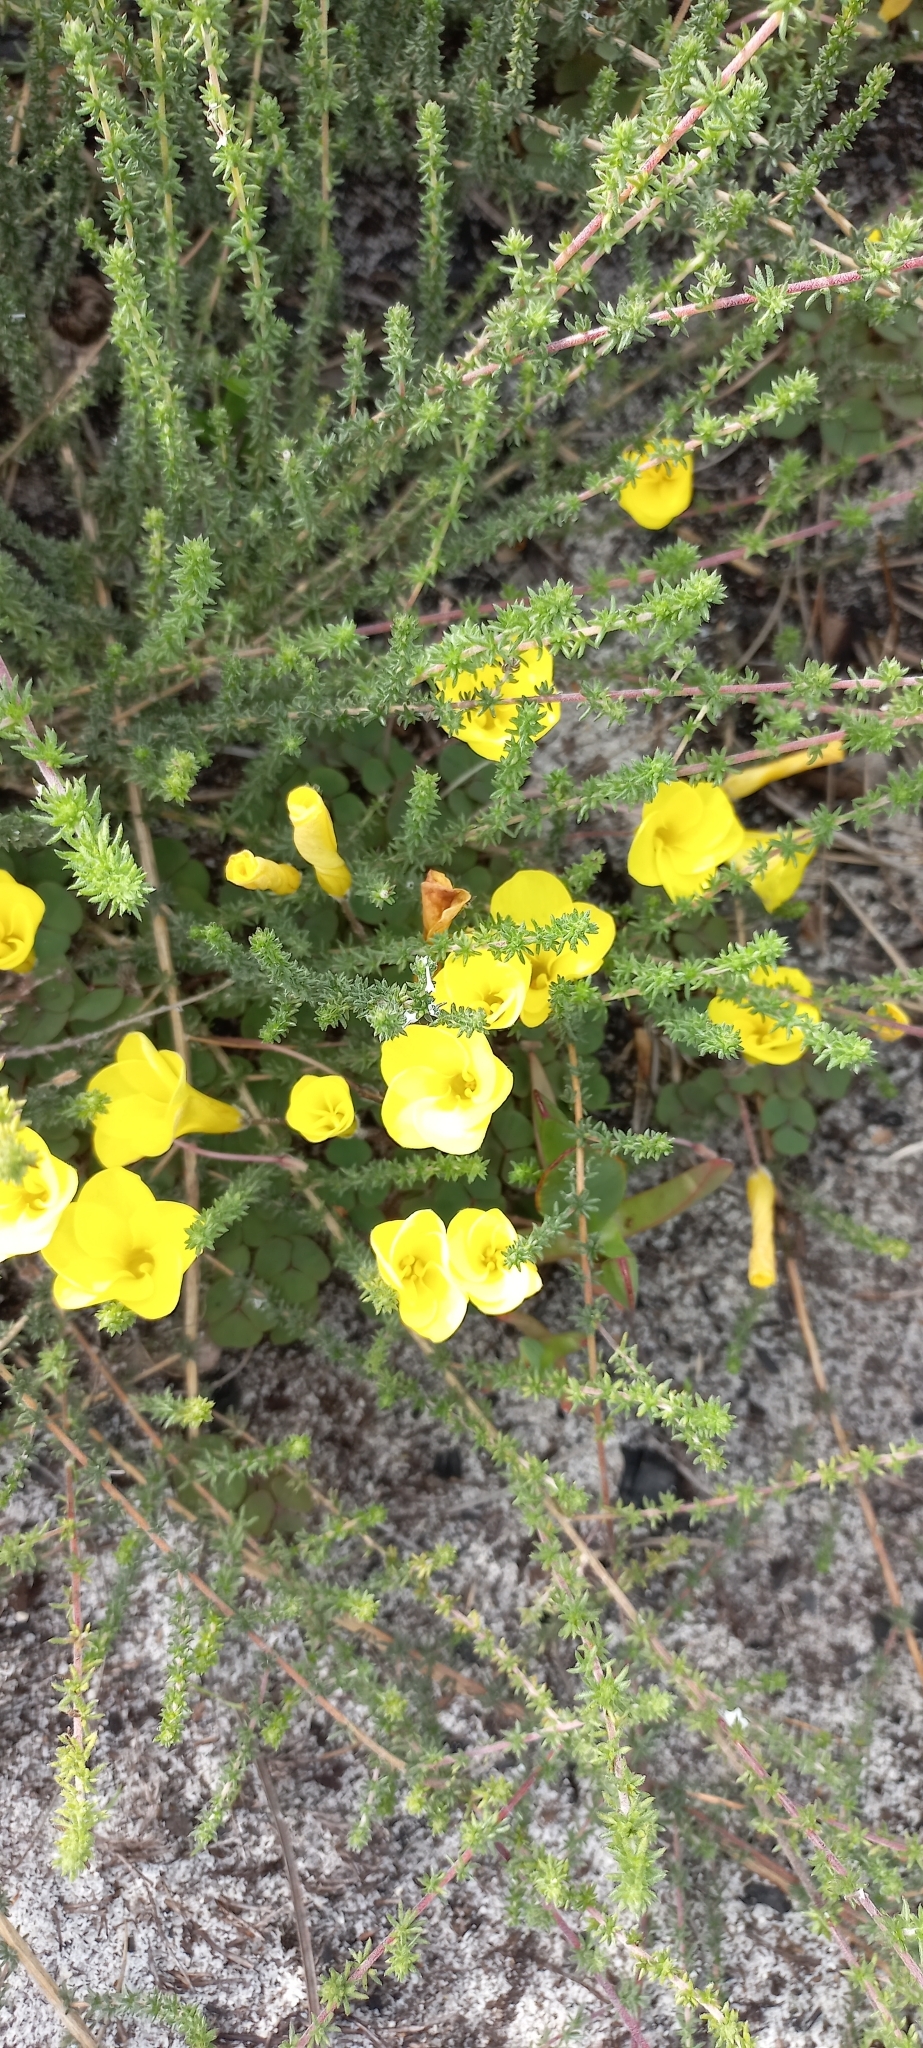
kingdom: Plantae
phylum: Tracheophyta
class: Magnoliopsida
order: Oxalidales
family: Oxalidaceae
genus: Oxalis
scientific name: Oxalis luteola
